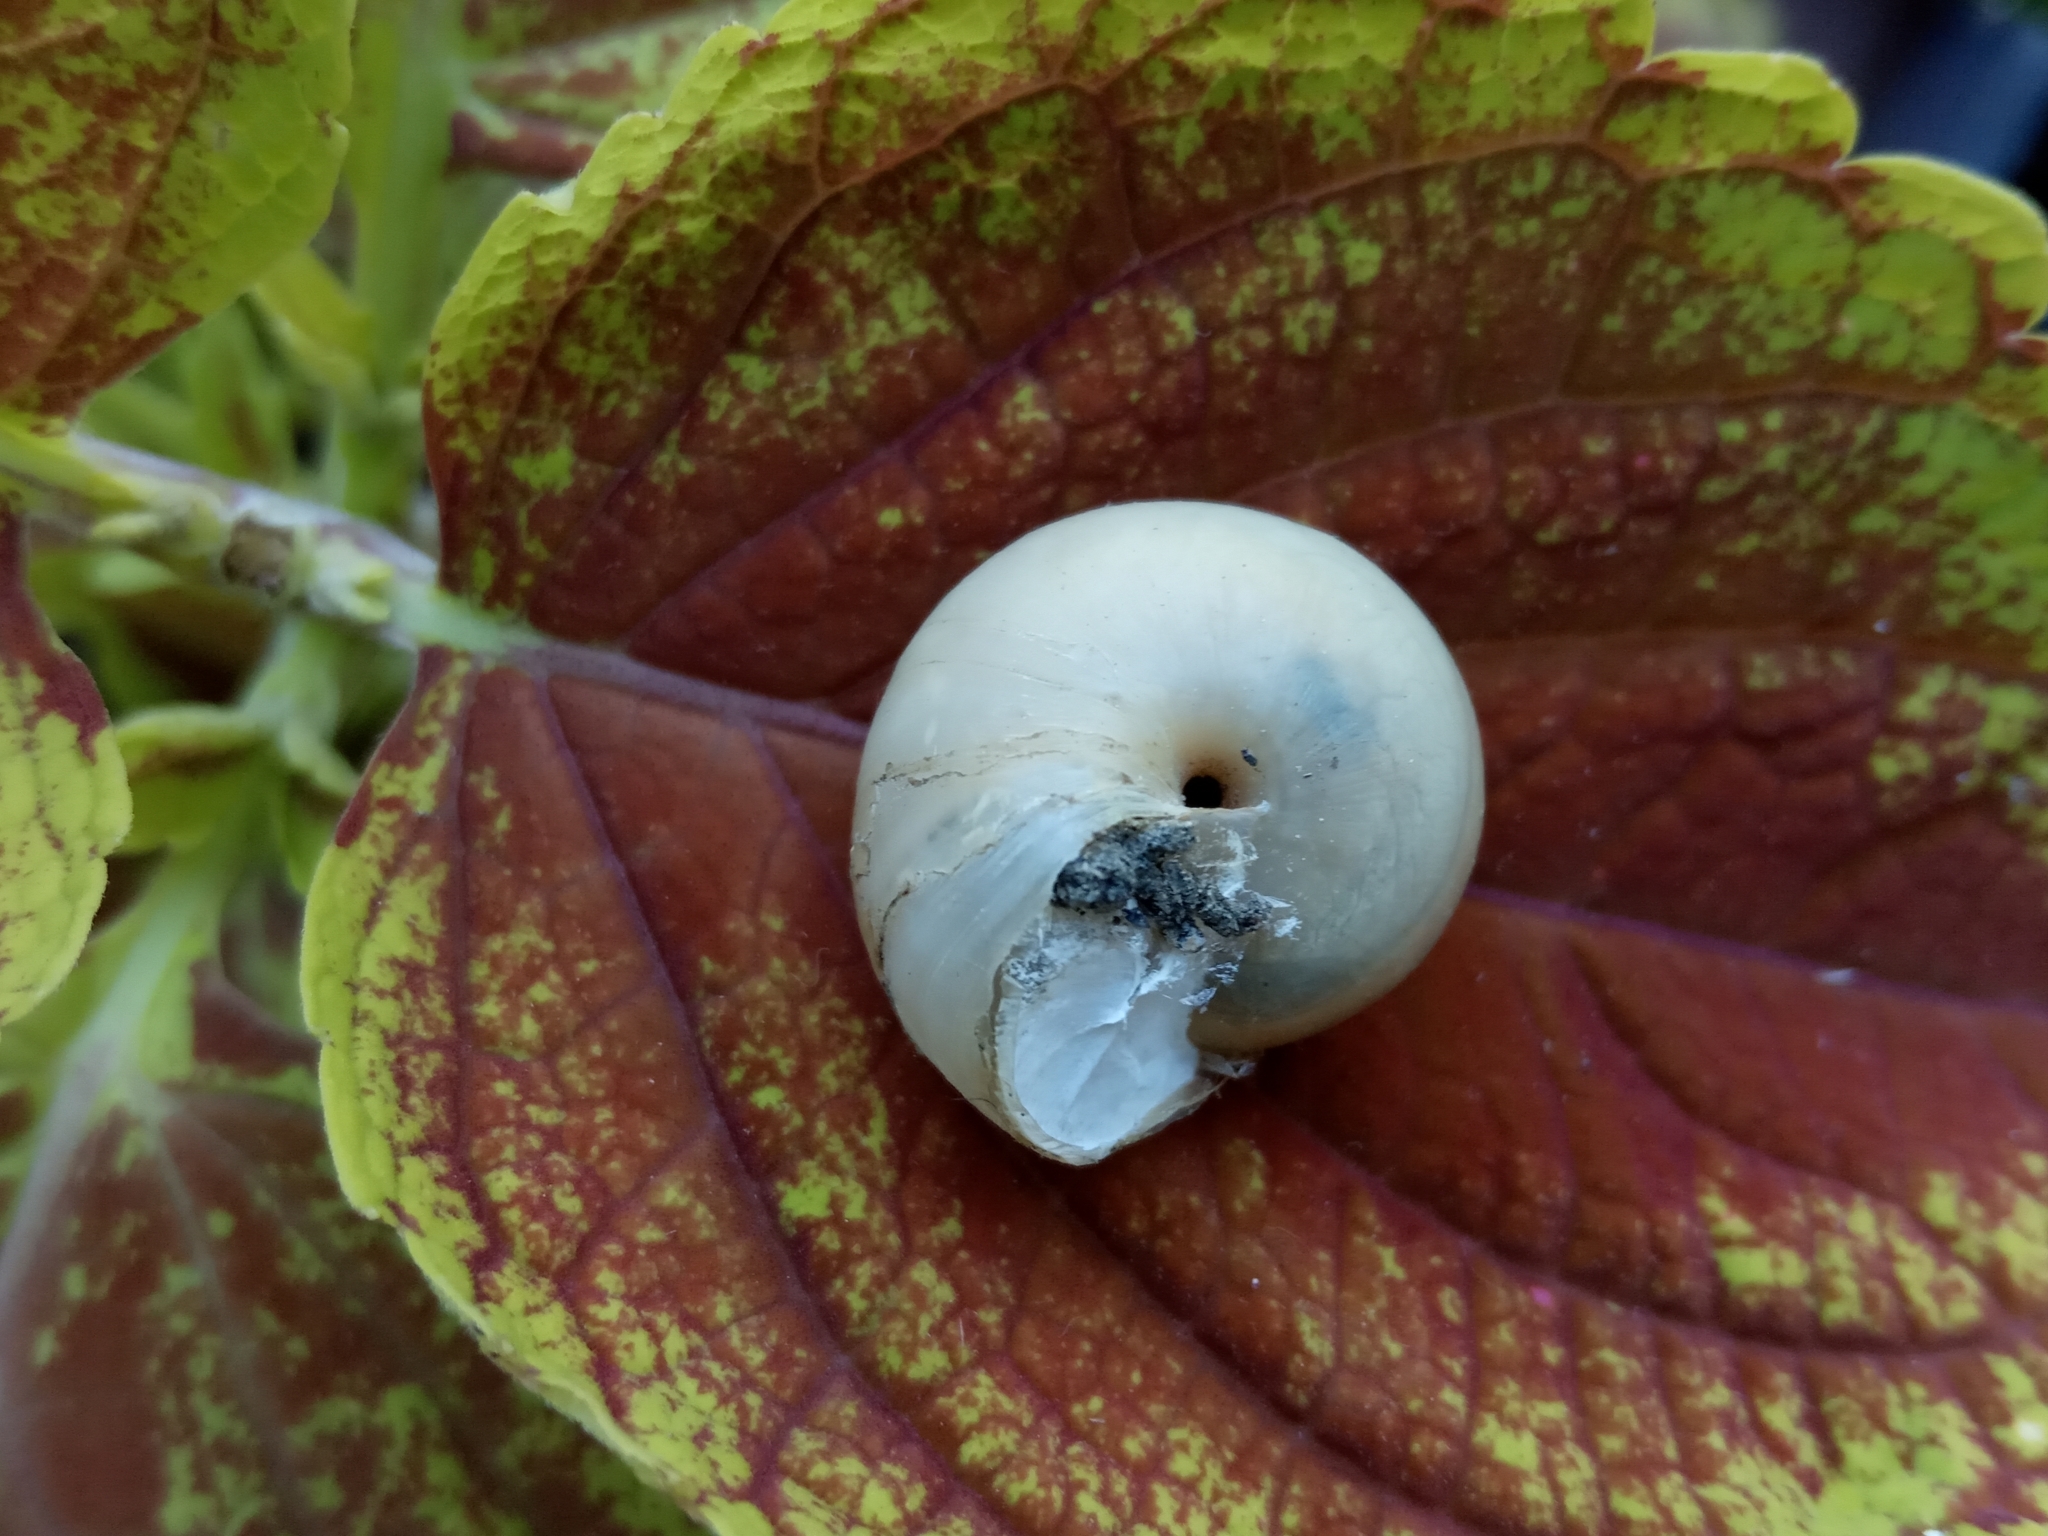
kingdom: Animalia
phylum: Mollusca
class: Gastropoda
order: Stylommatophora
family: Camaenidae
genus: Fruticicola
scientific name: Fruticicola fruticum
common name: Bush snail
